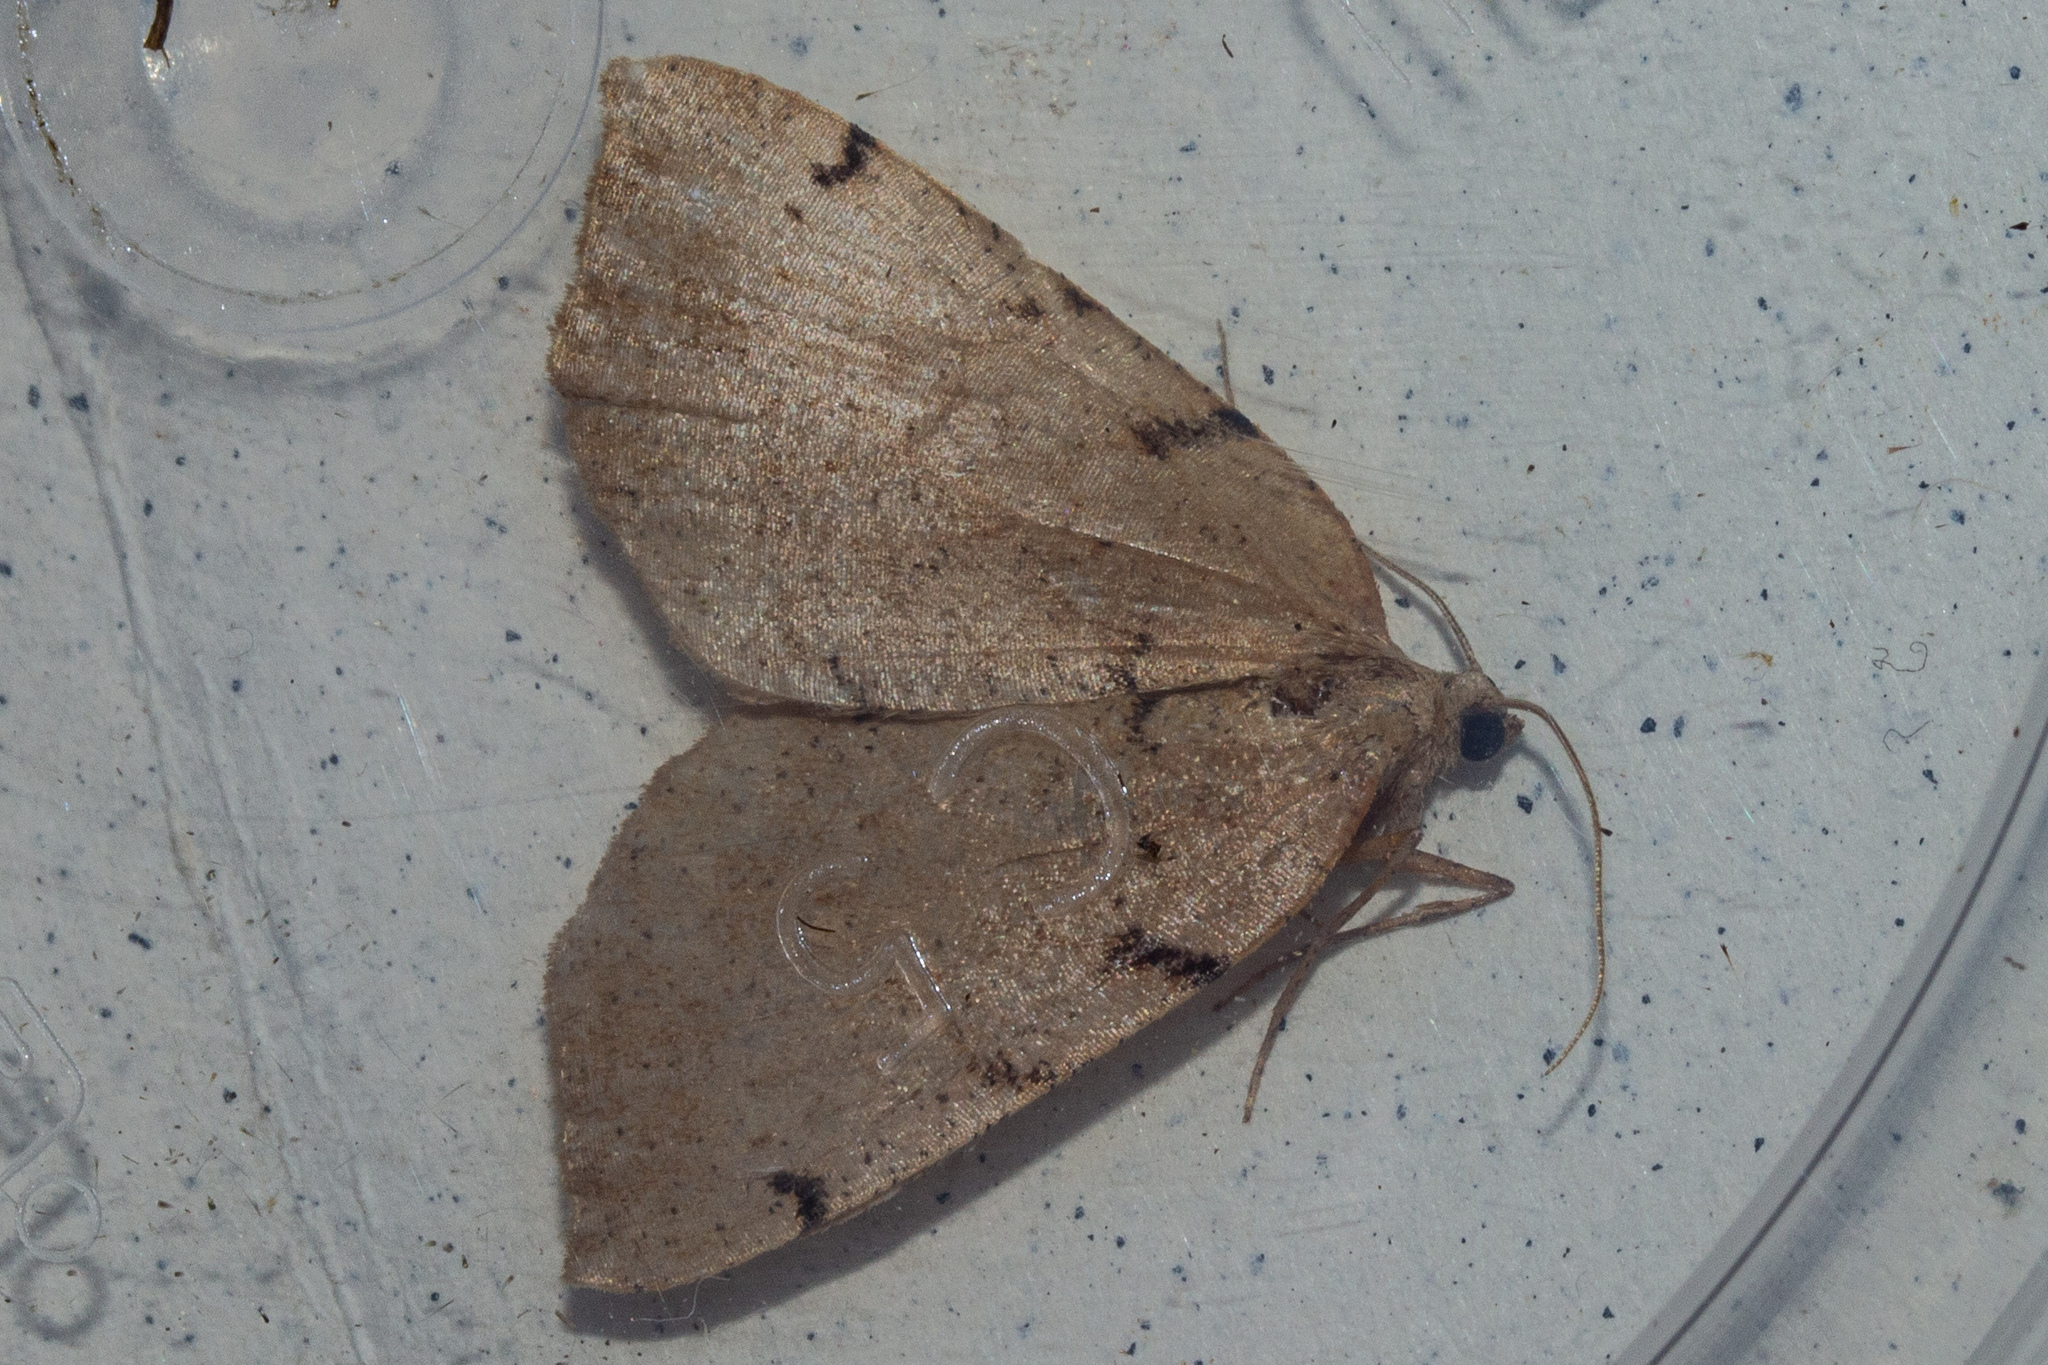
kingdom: Animalia
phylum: Arthropoda
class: Insecta
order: Lepidoptera
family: Geometridae
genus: Sestra
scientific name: Sestra humeraria
